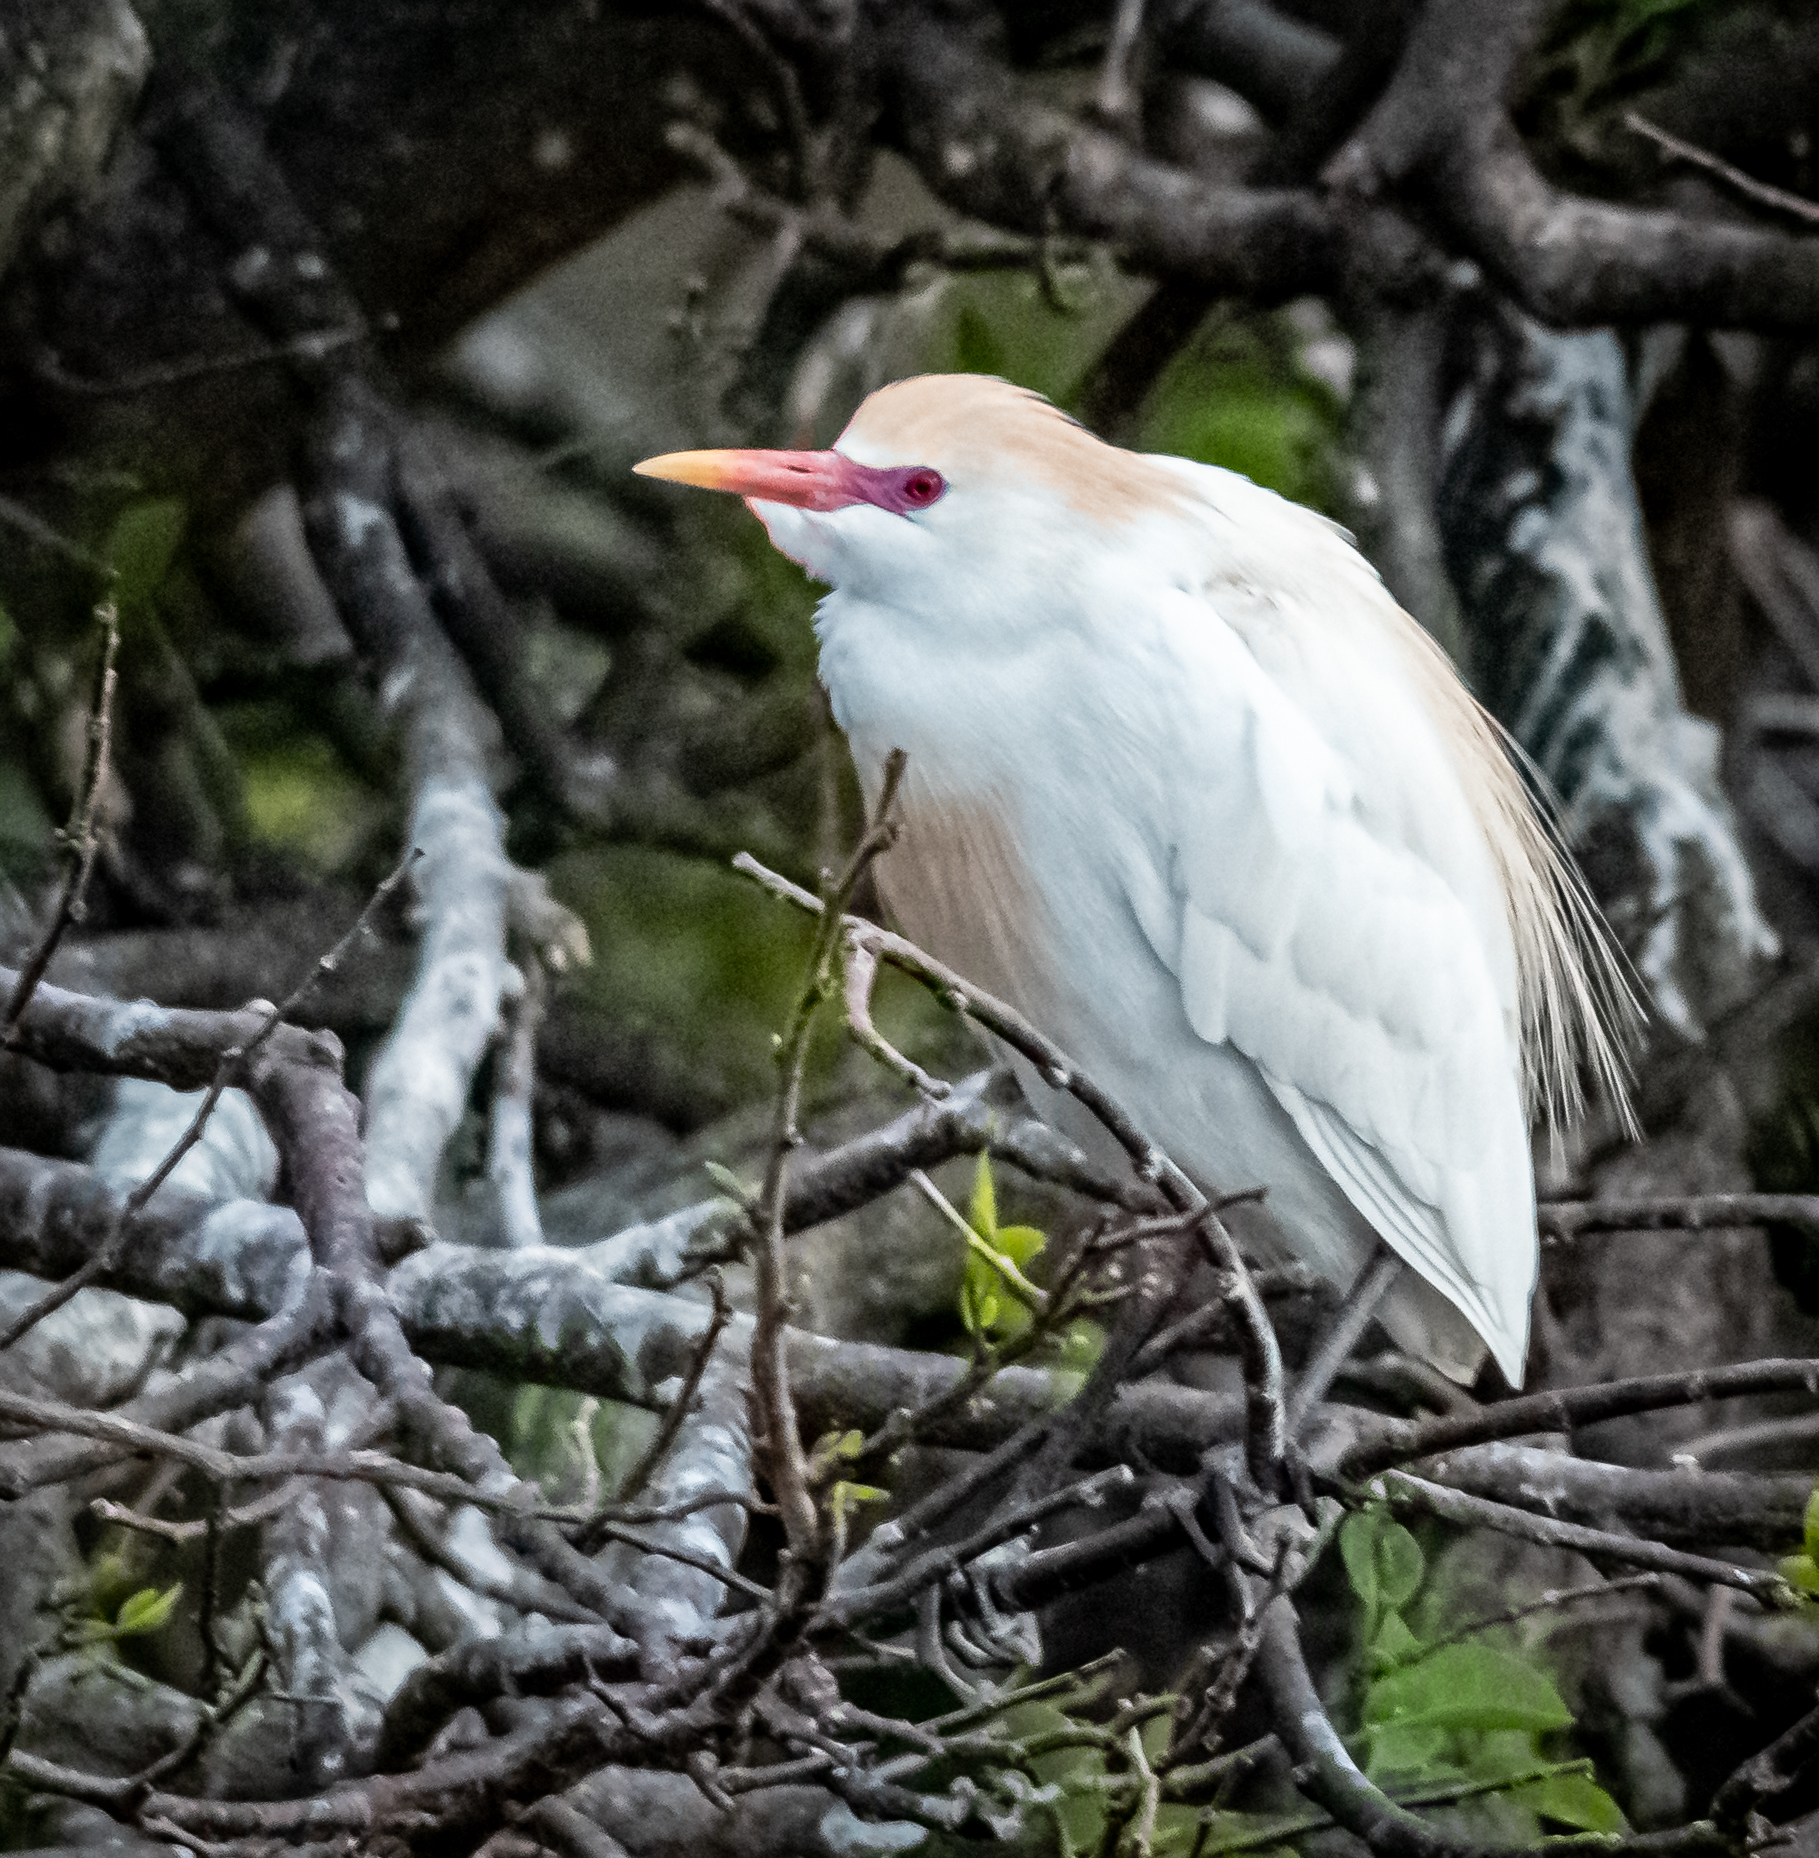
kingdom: Animalia
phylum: Chordata
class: Aves
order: Pelecaniformes
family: Ardeidae
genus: Bubulcus
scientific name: Bubulcus ibis
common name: Cattle egret
